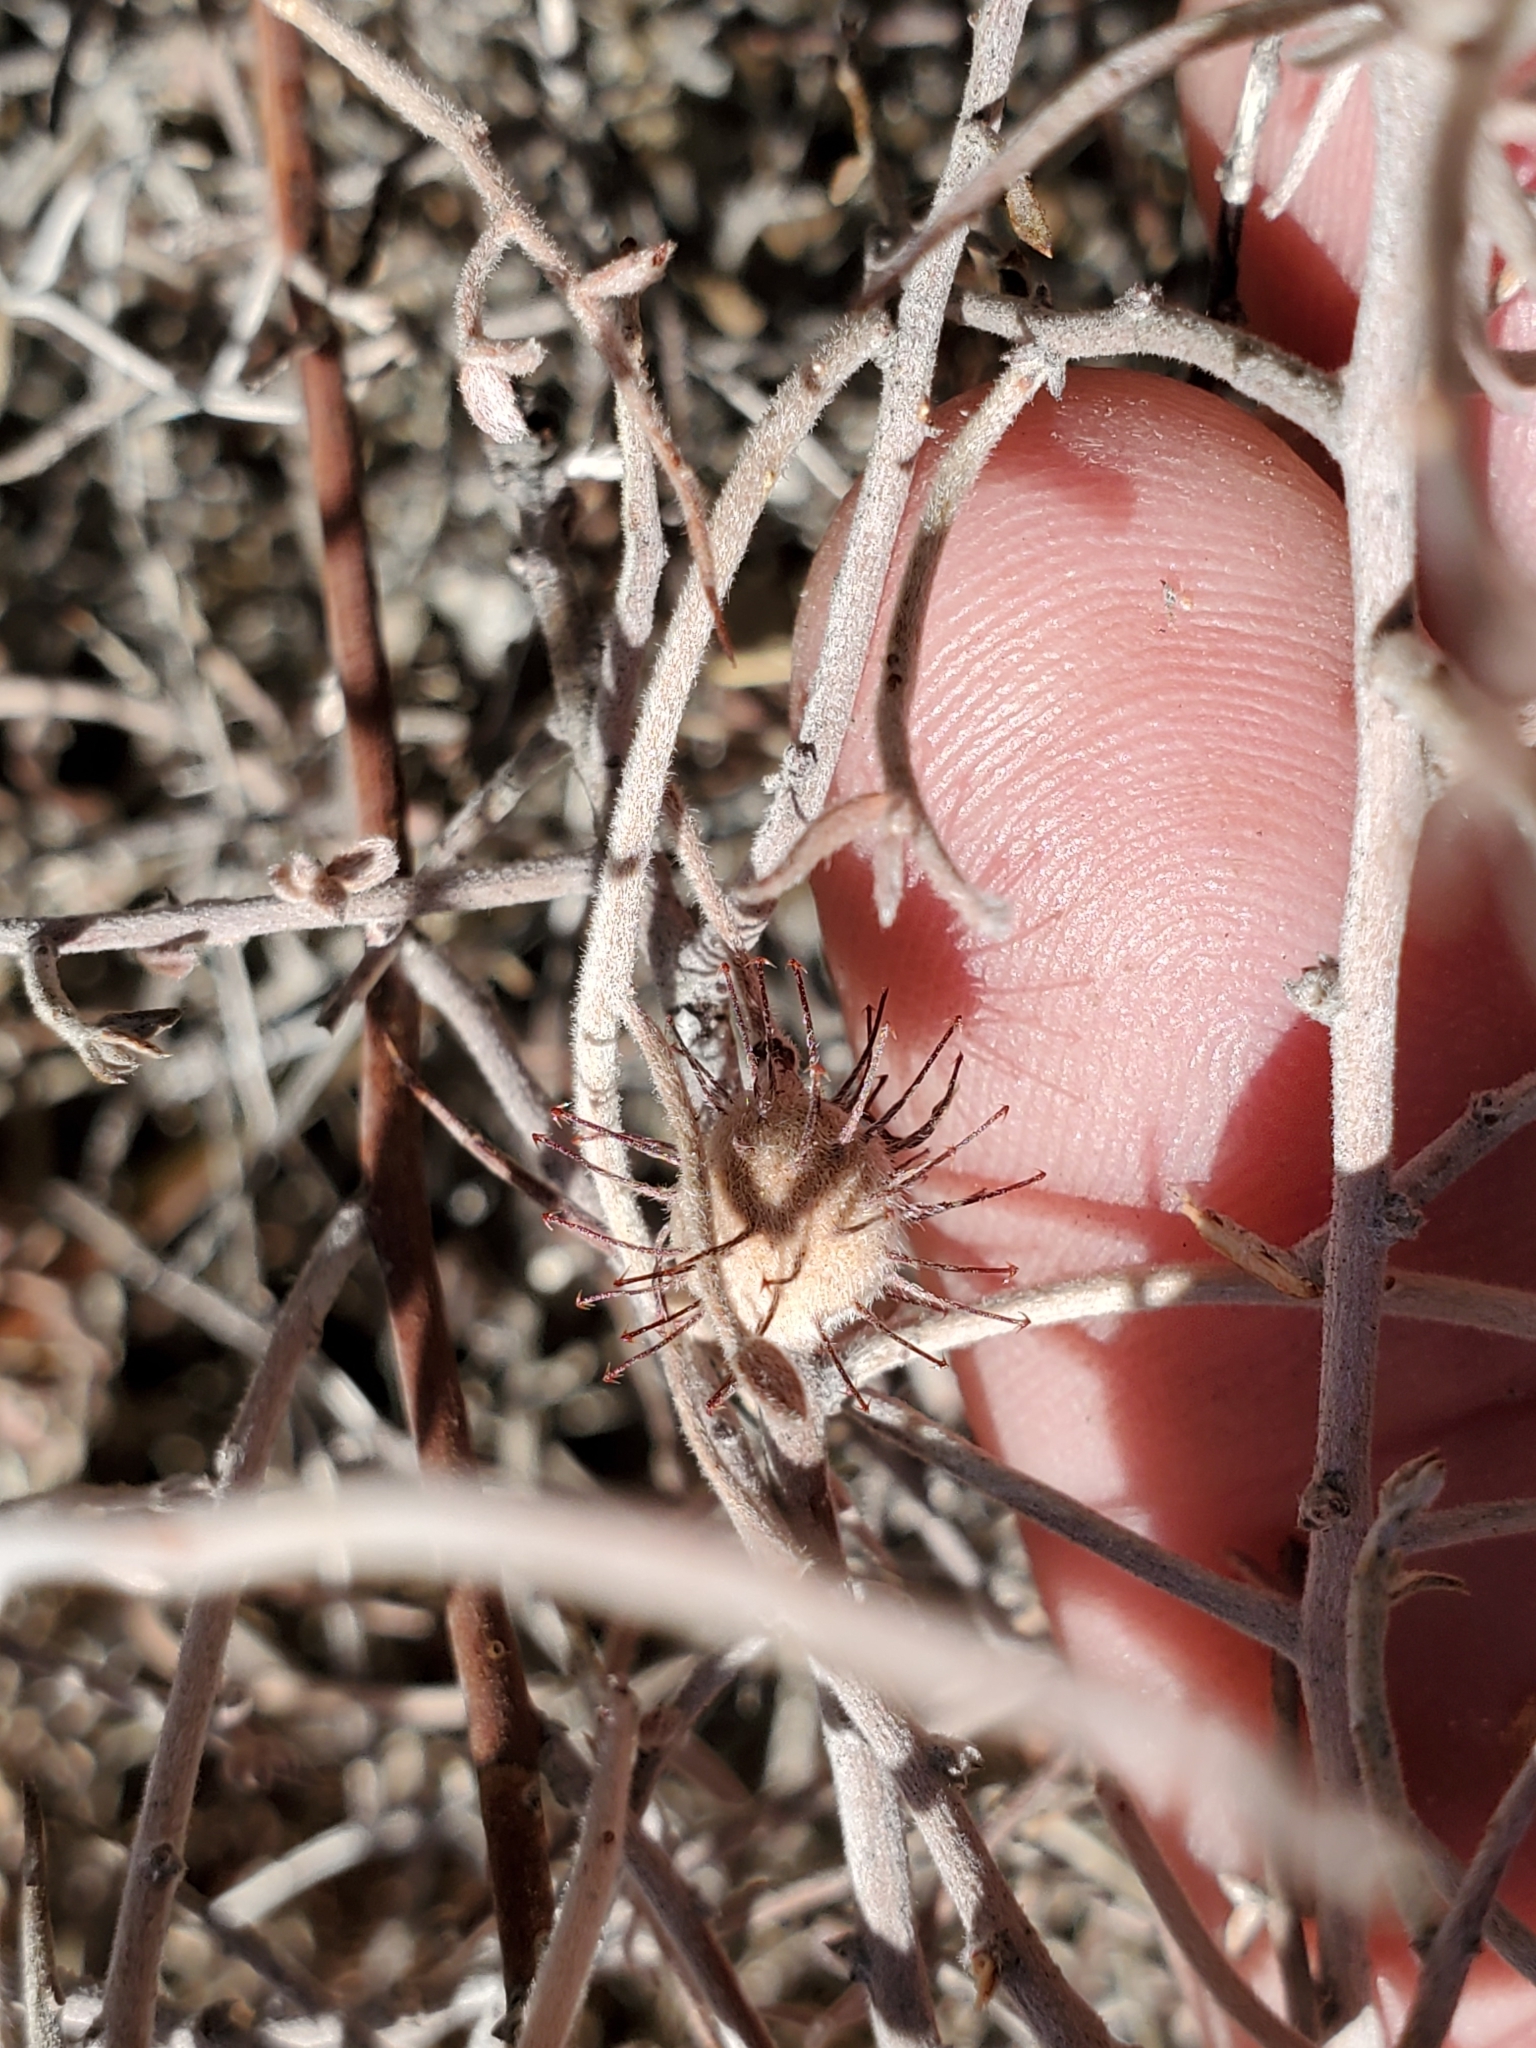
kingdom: Plantae
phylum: Tracheophyta
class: Magnoliopsida
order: Zygophyllales
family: Krameriaceae
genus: Krameria
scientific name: Krameria bicolor
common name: White ratany
